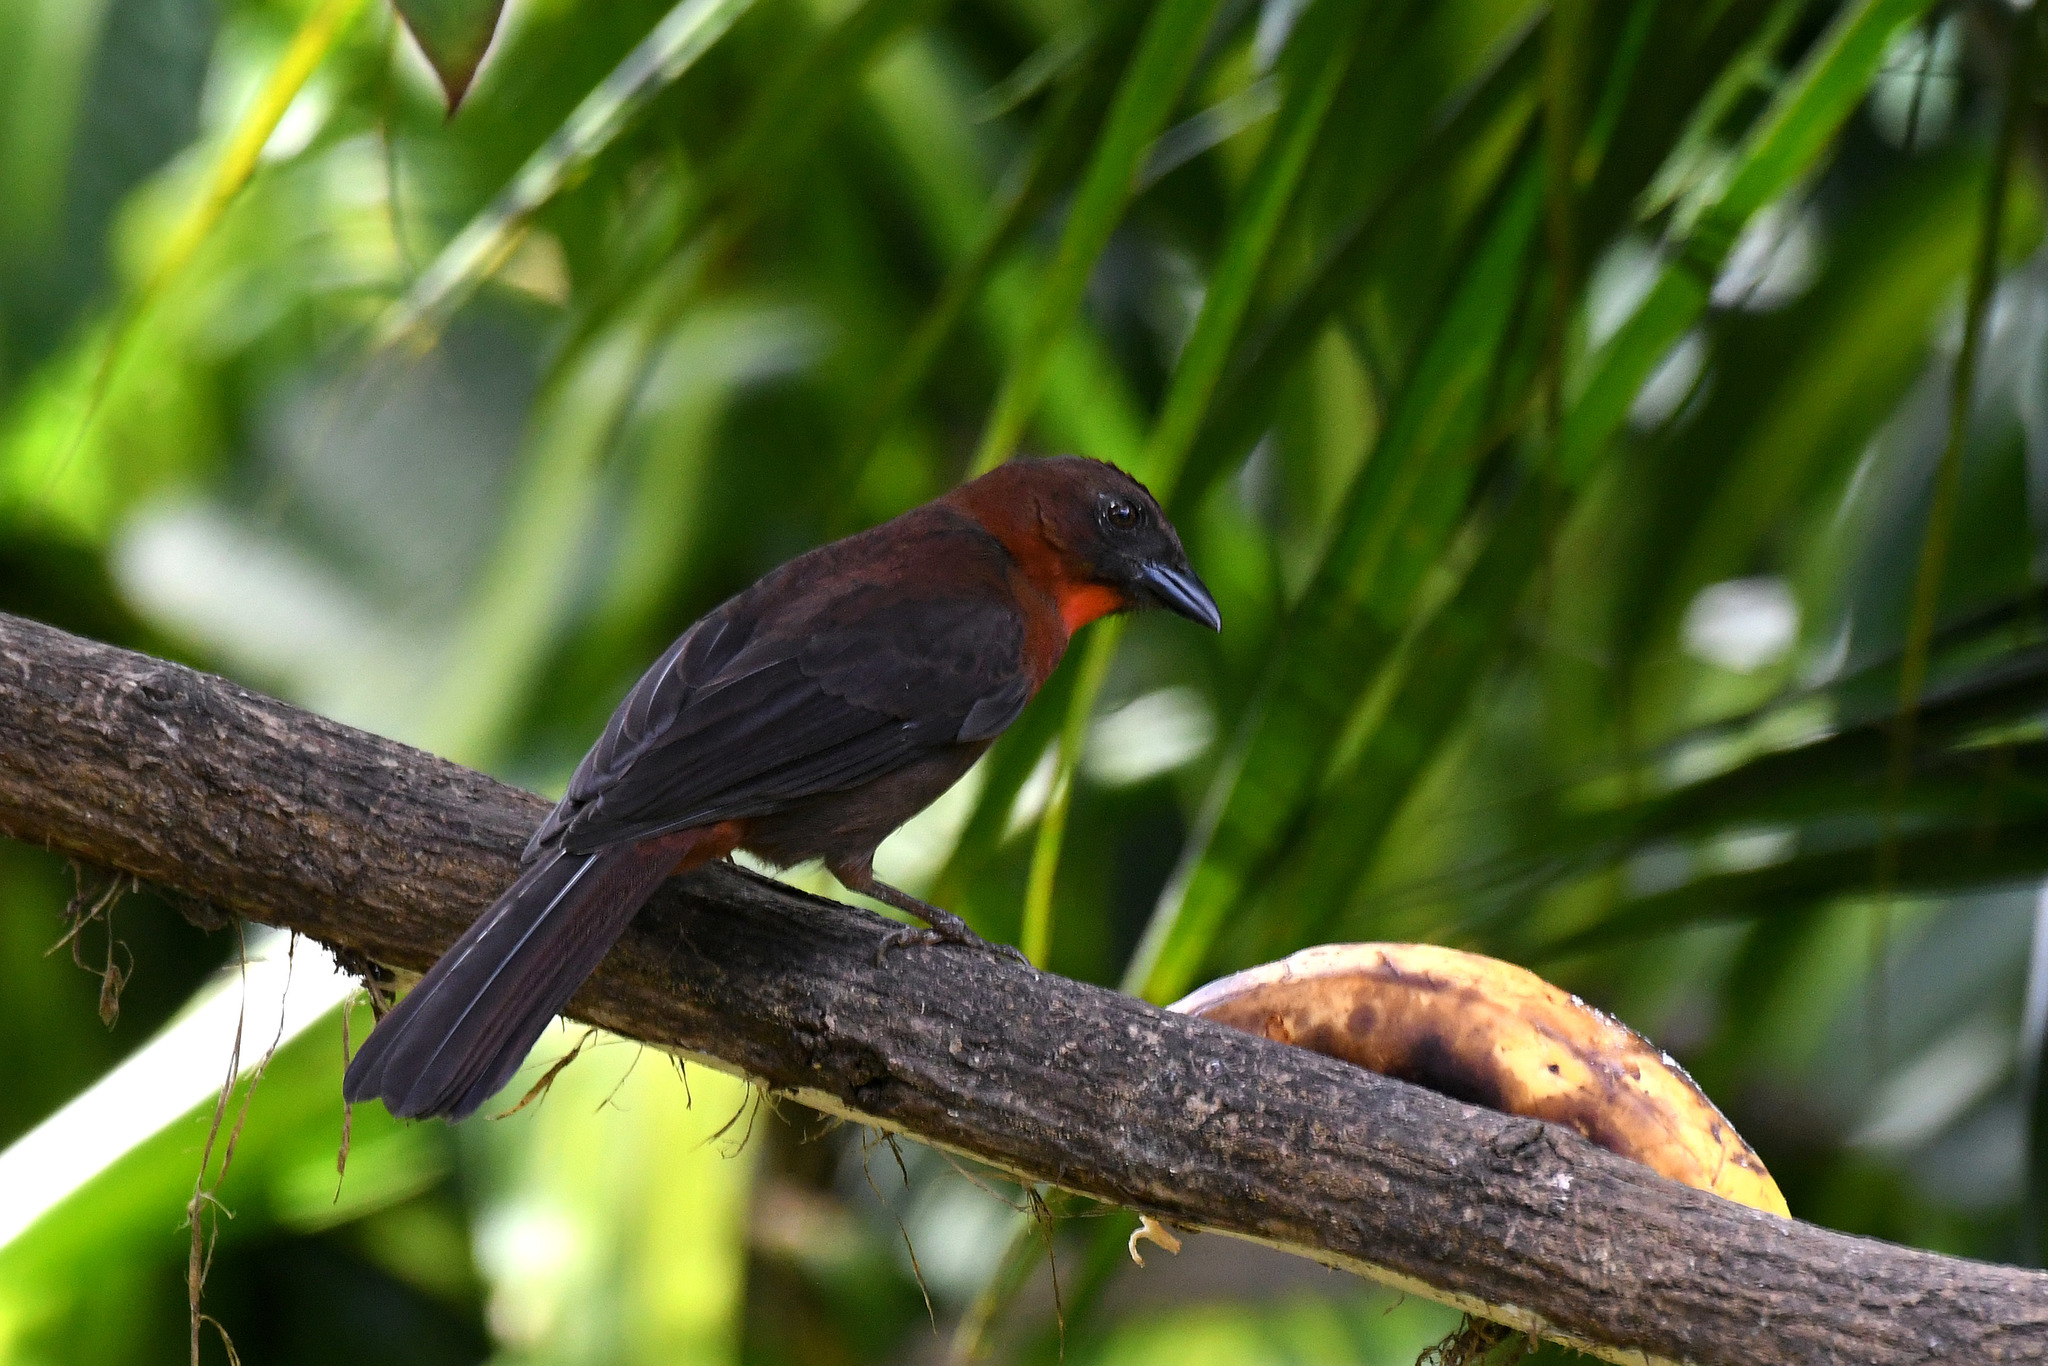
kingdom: Animalia
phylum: Chordata
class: Aves
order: Passeriformes
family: Cardinalidae
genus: Habia
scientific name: Habia fuscicauda
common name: Red-throated ant-tanager
